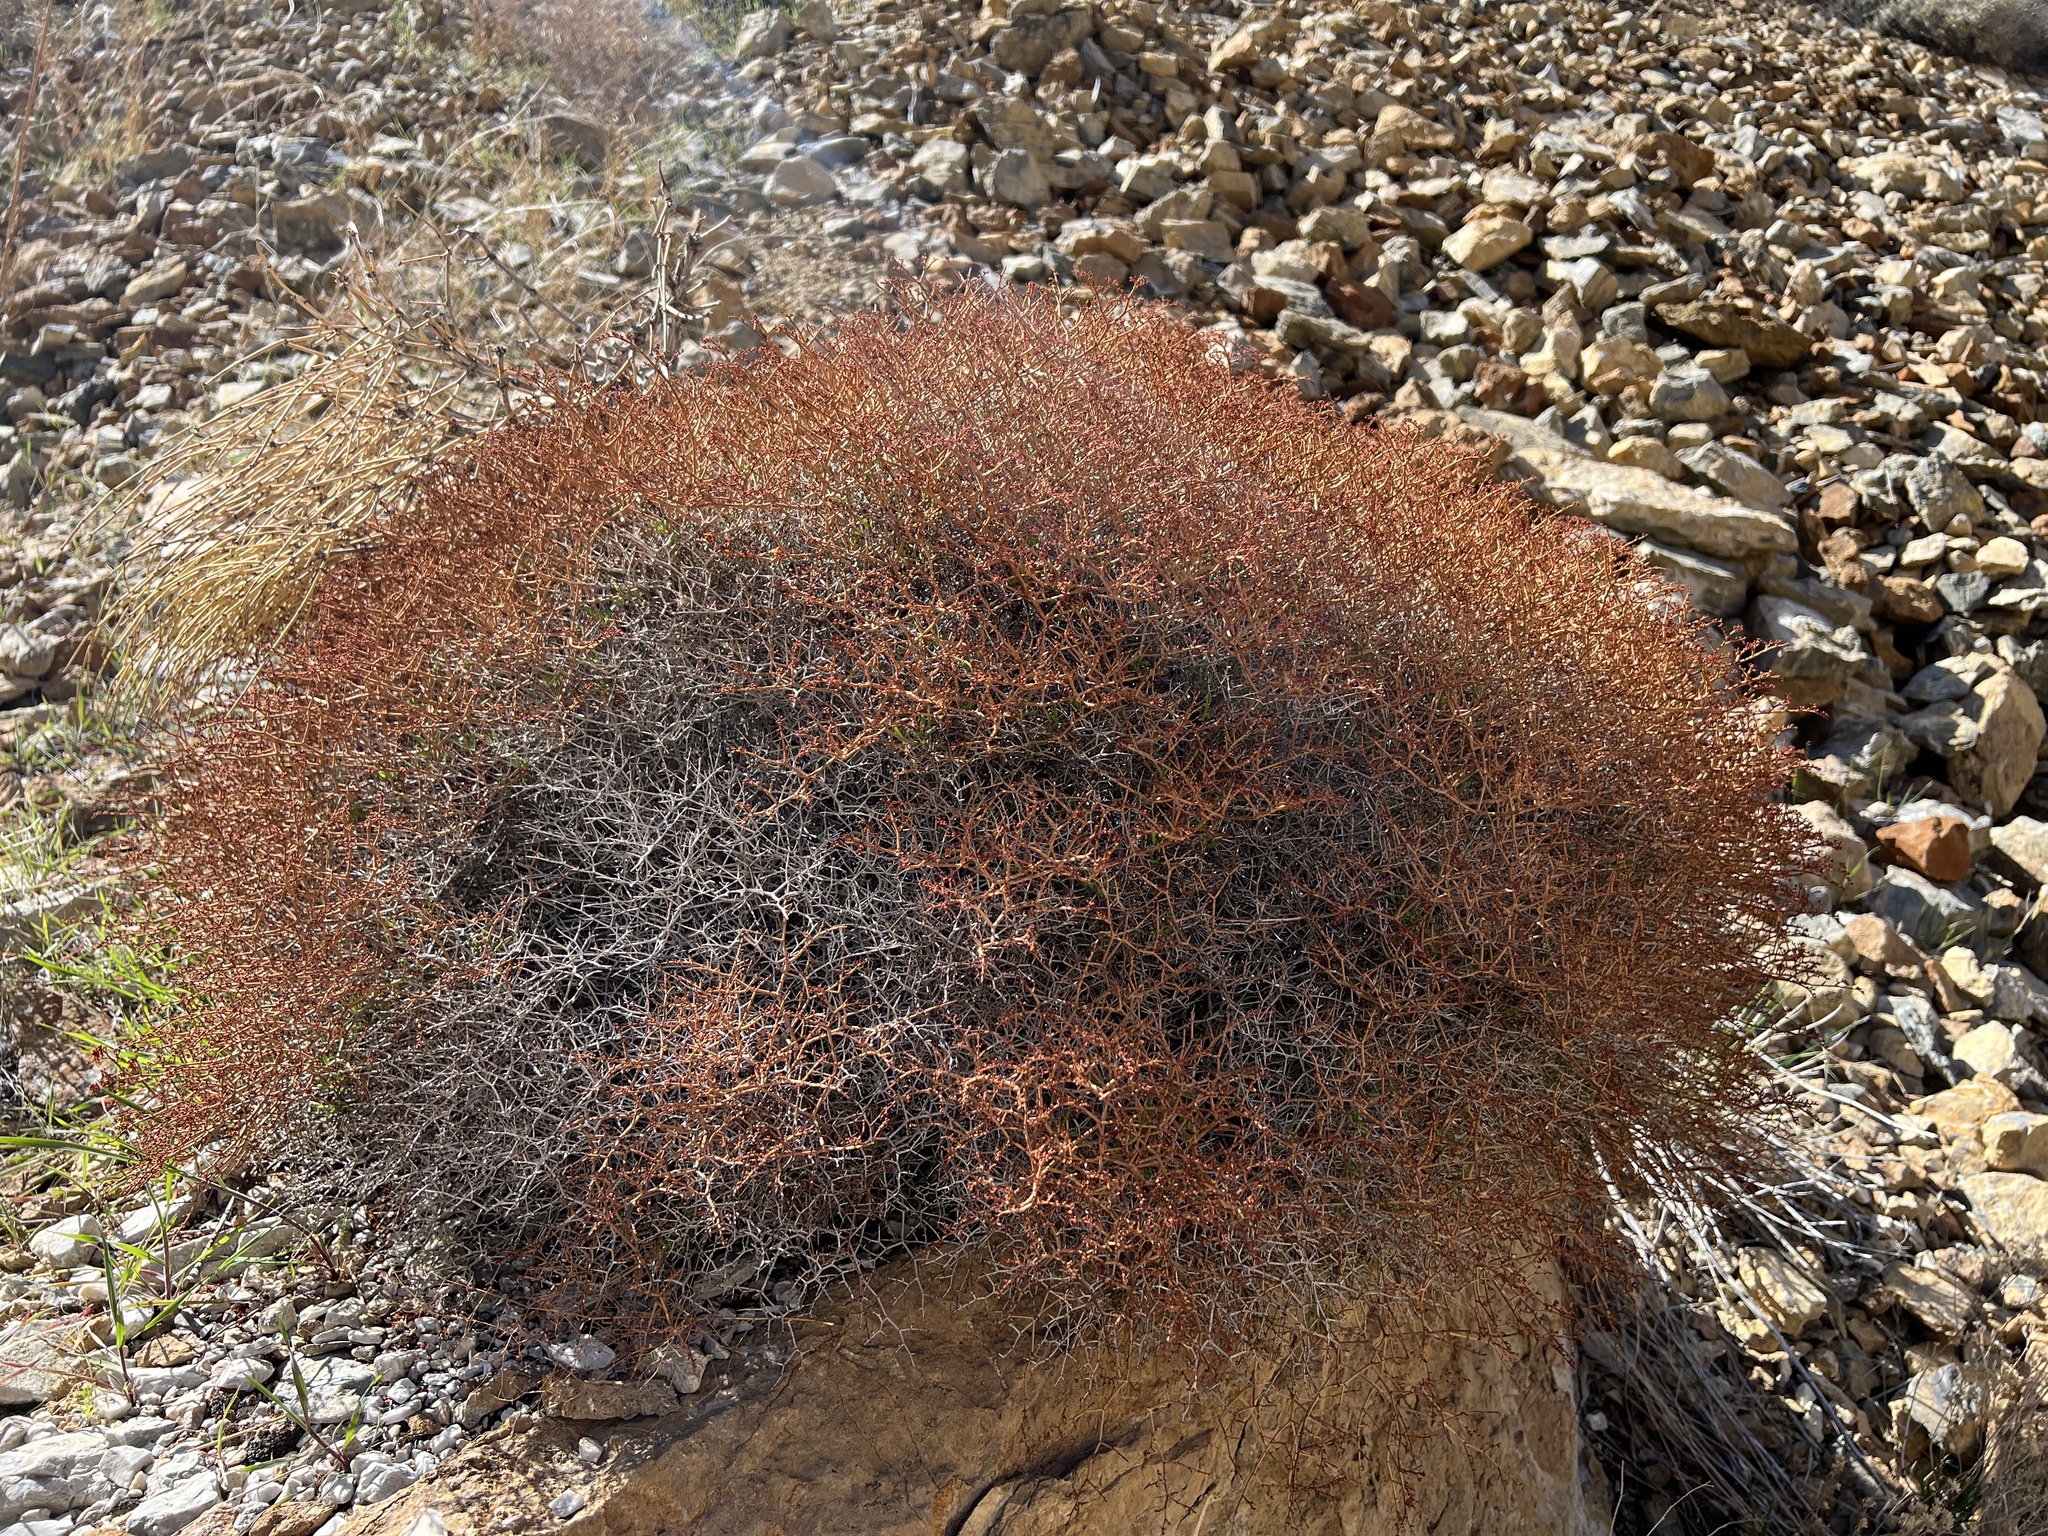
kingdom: Plantae
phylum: Tracheophyta
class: Magnoliopsida
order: Caryophyllales
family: Polygonaceae
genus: Eriogonum
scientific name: Eriogonum heermannii
